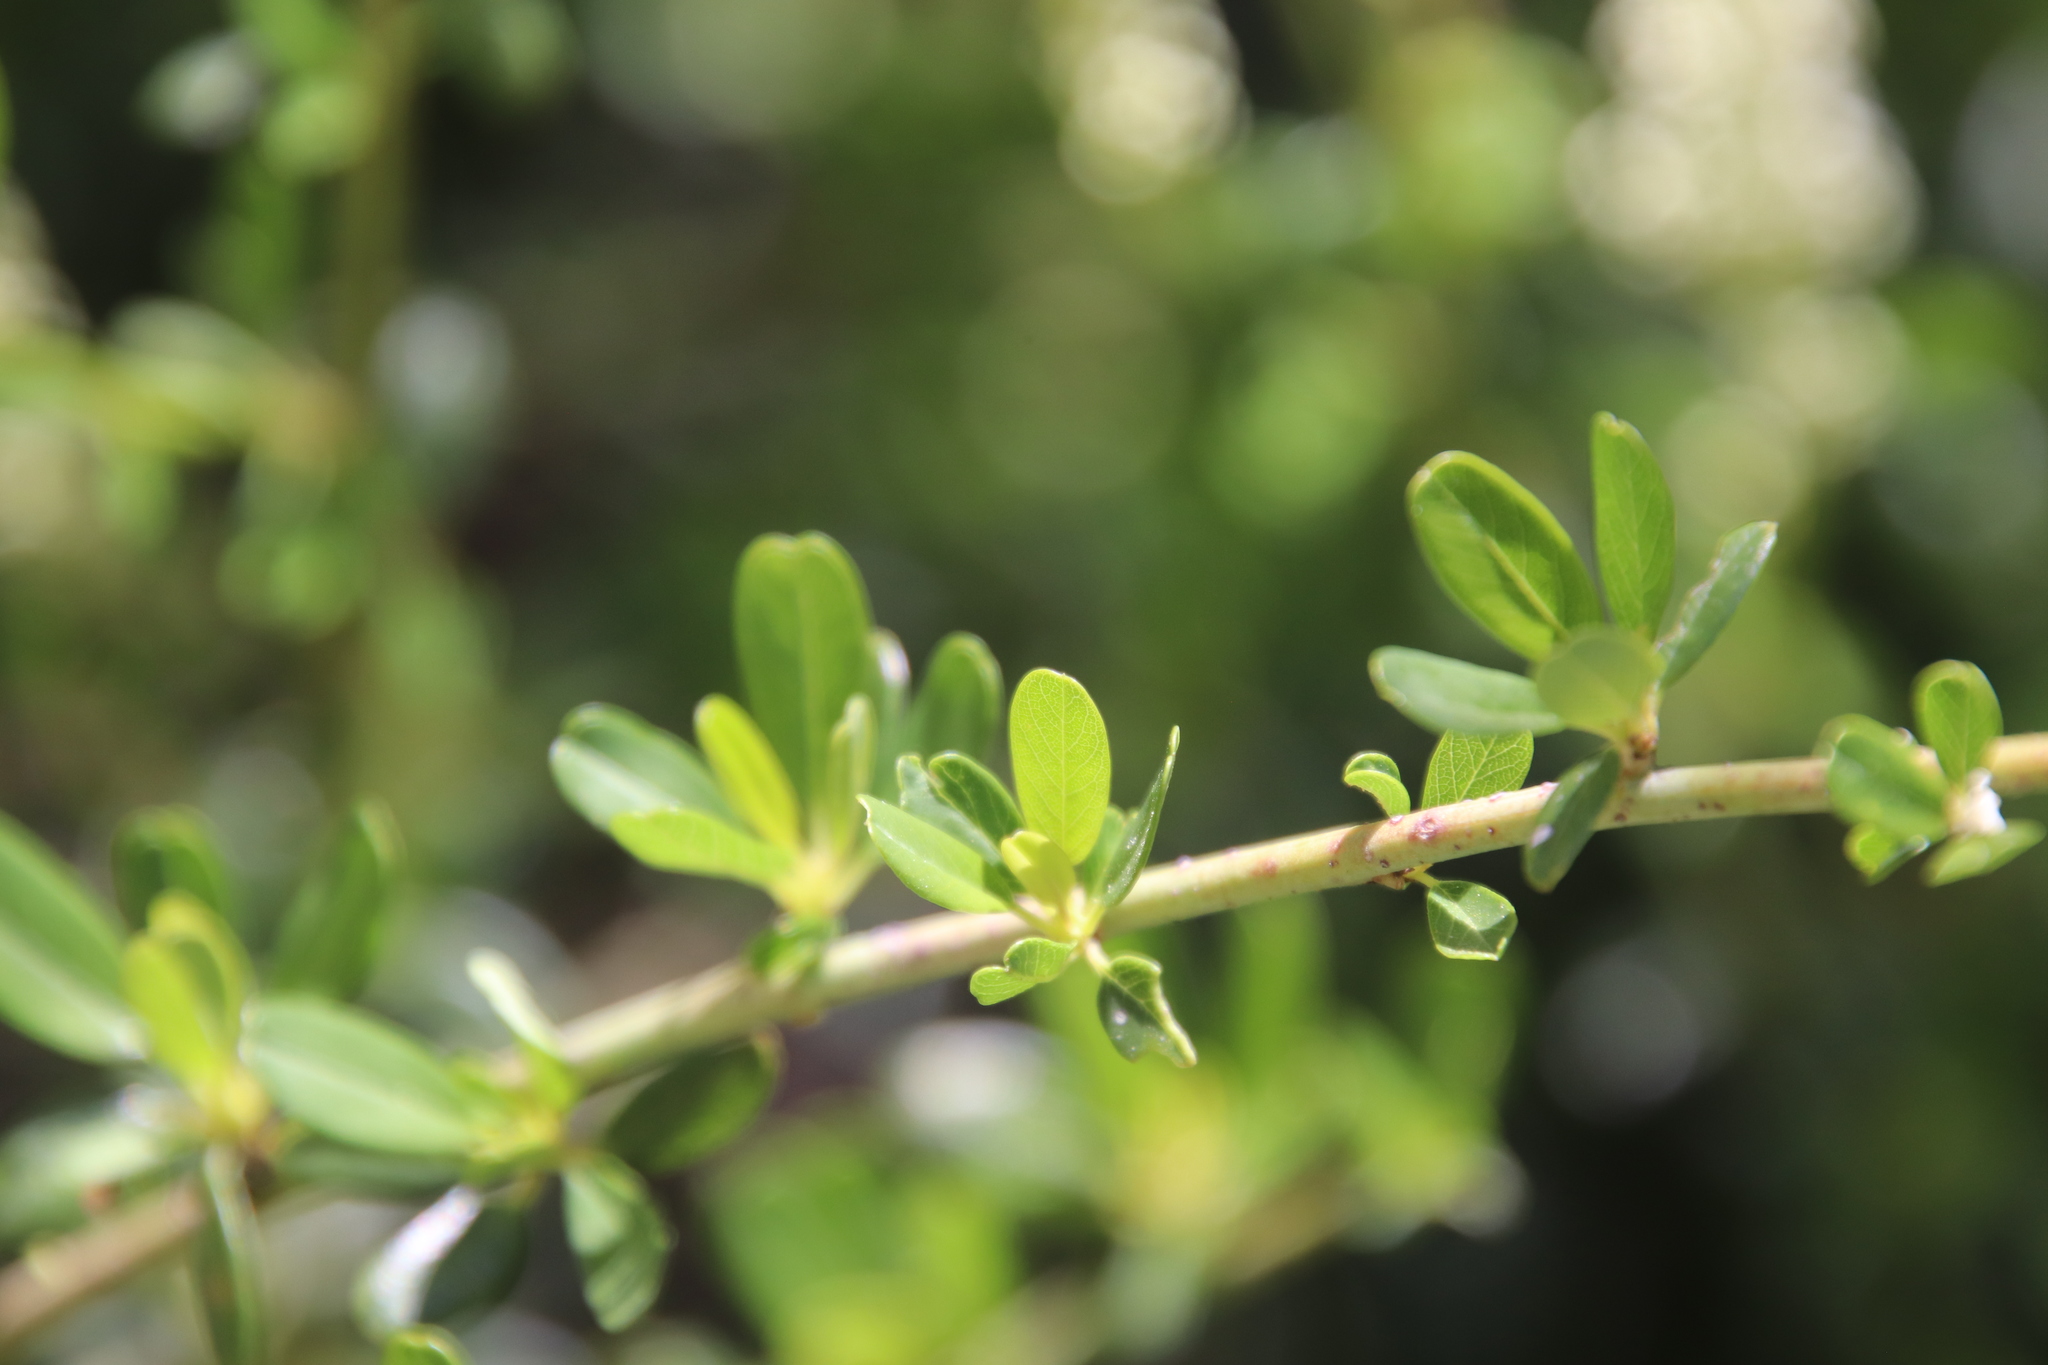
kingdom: Plantae
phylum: Tracheophyta
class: Magnoliopsida
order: Rosales
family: Rhamnaceae
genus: Ceanothus
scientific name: Ceanothus palmeri
